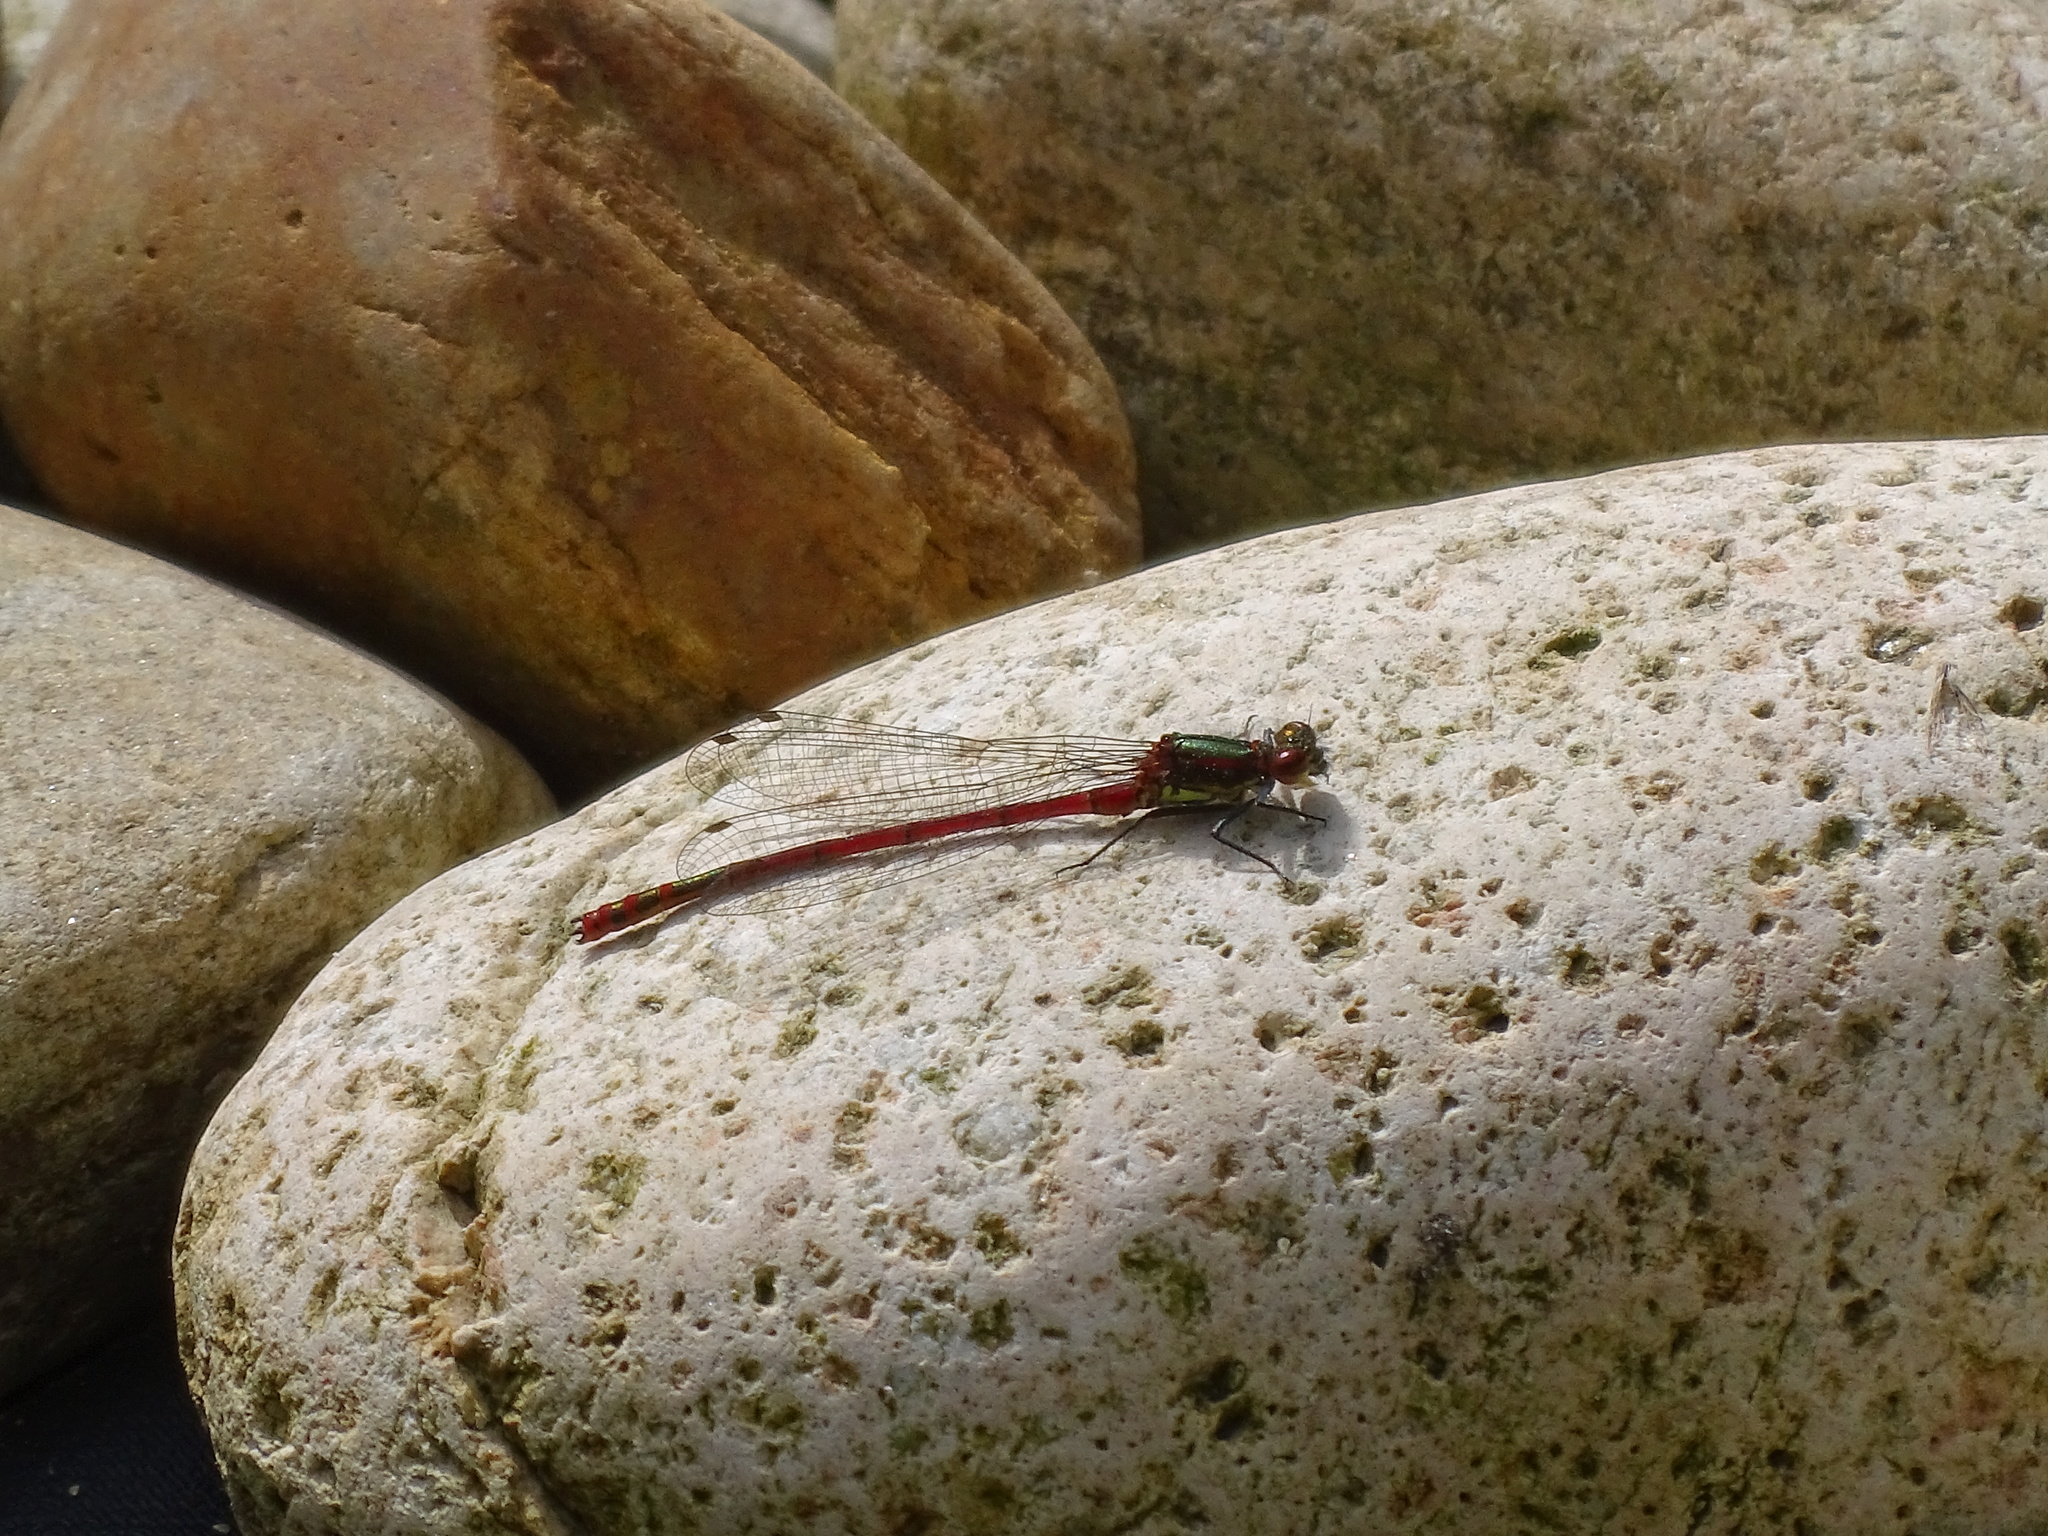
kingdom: Animalia
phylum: Arthropoda
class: Insecta
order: Odonata
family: Coenagrionidae
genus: Pyrrhosoma
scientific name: Pyrrhosoma nymphula
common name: Large red damsel
